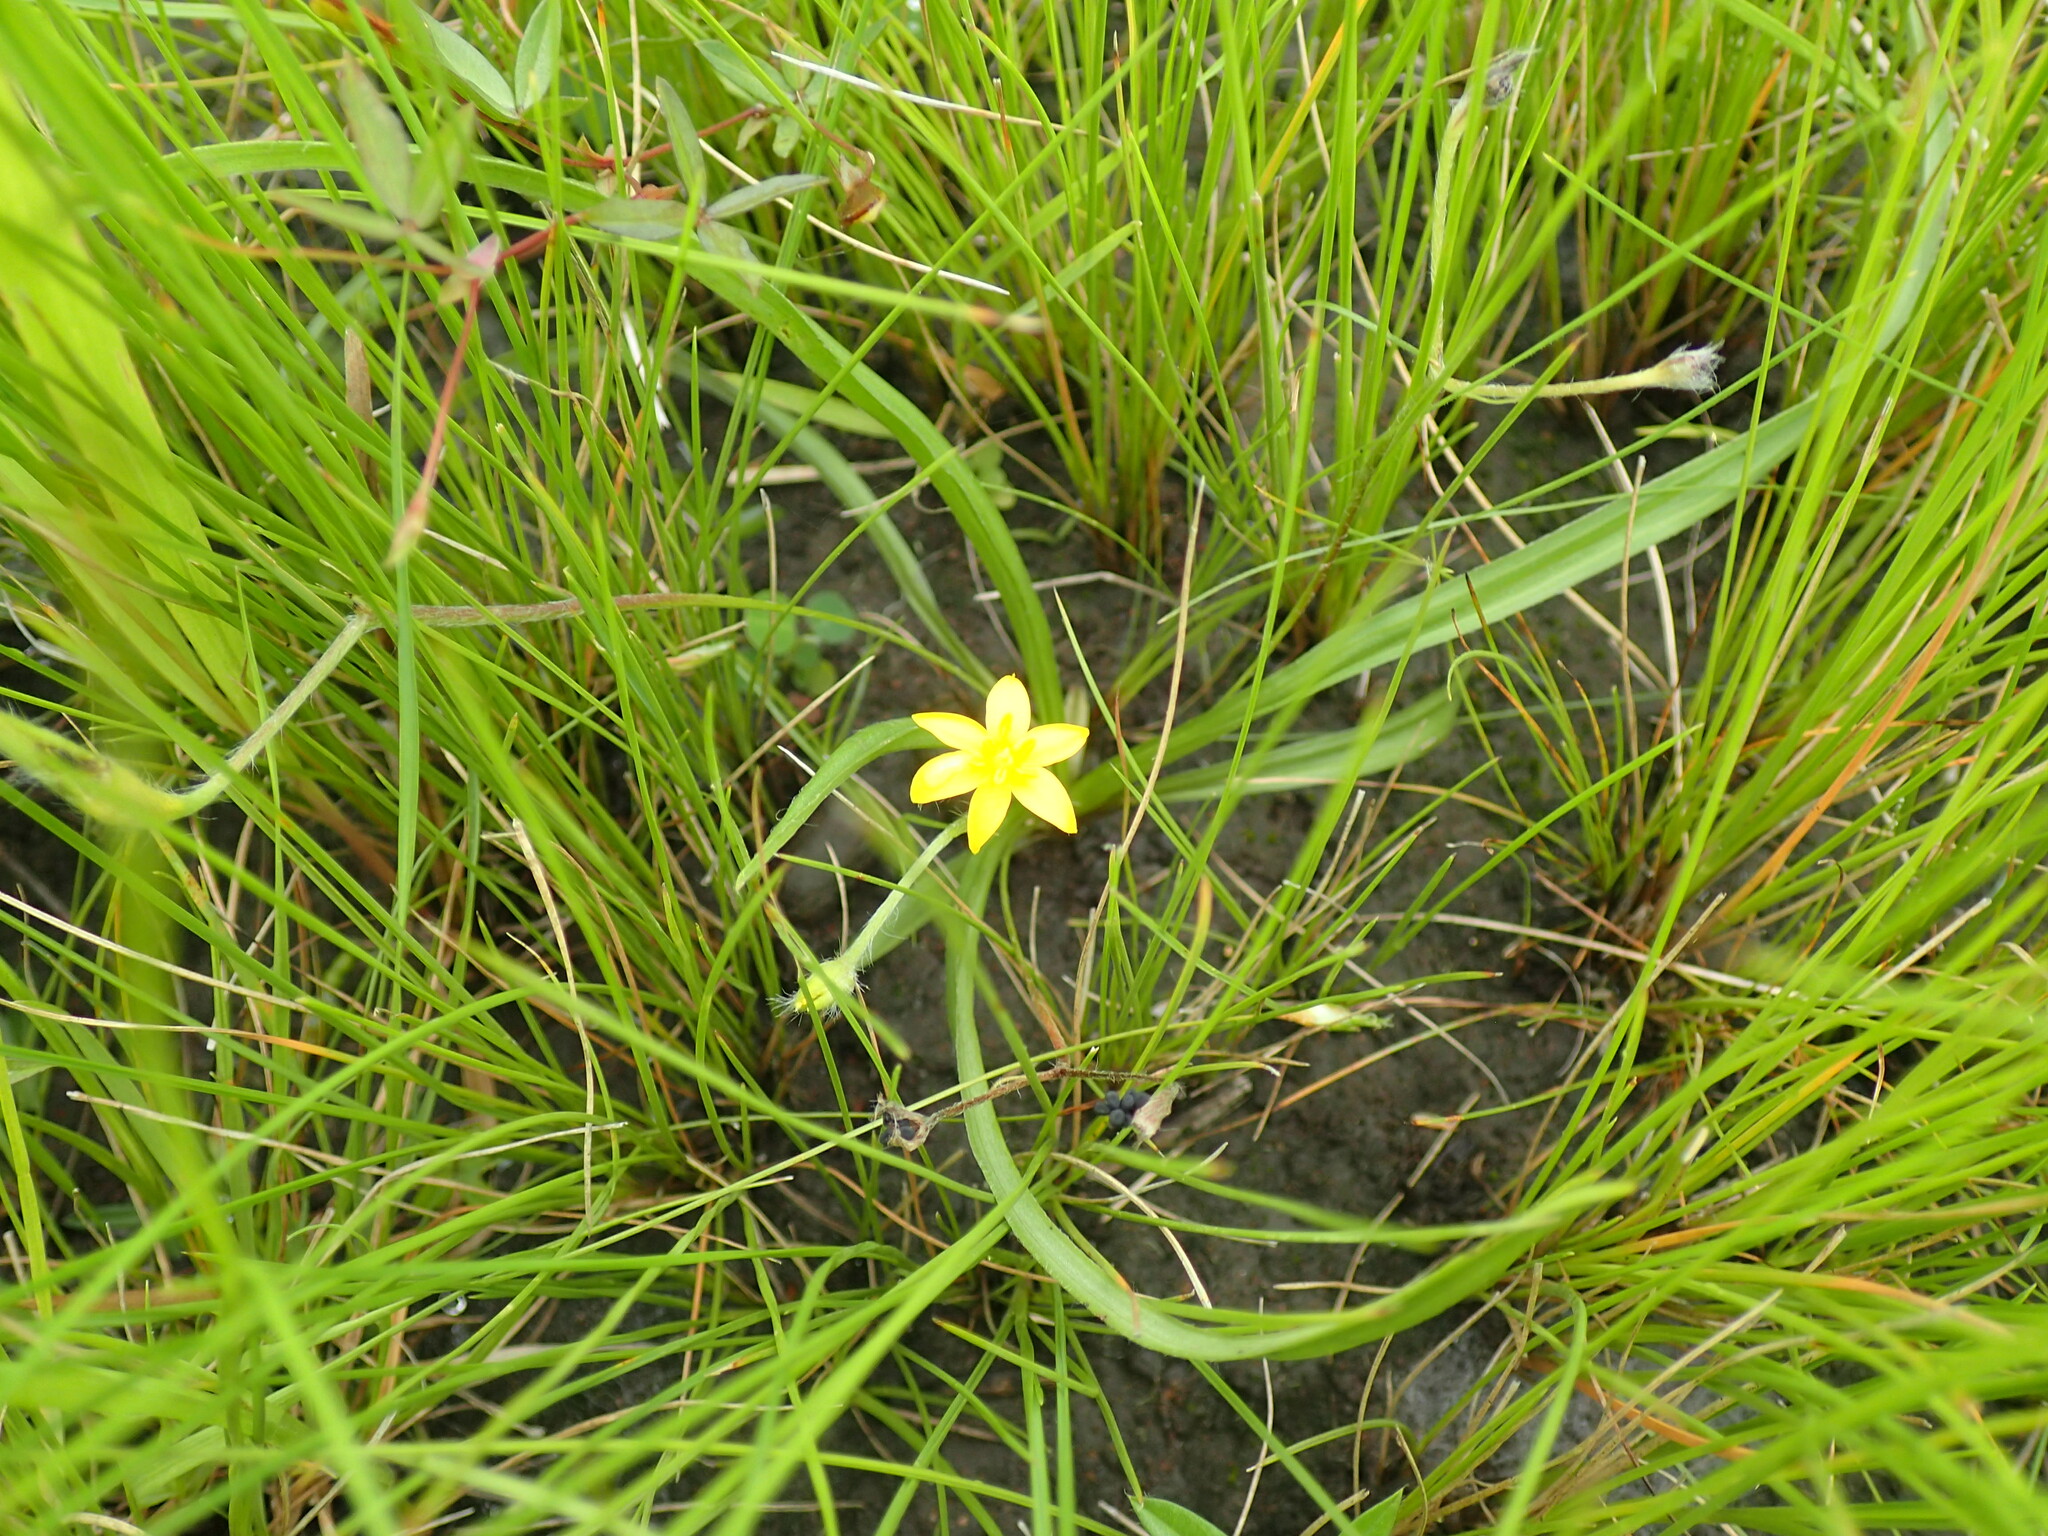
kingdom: Plantae
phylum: Tracheophyta
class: Liliopsida
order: Asparagales
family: Hypoxidaceae
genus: Hypoxis
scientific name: Hypoxis argentea
